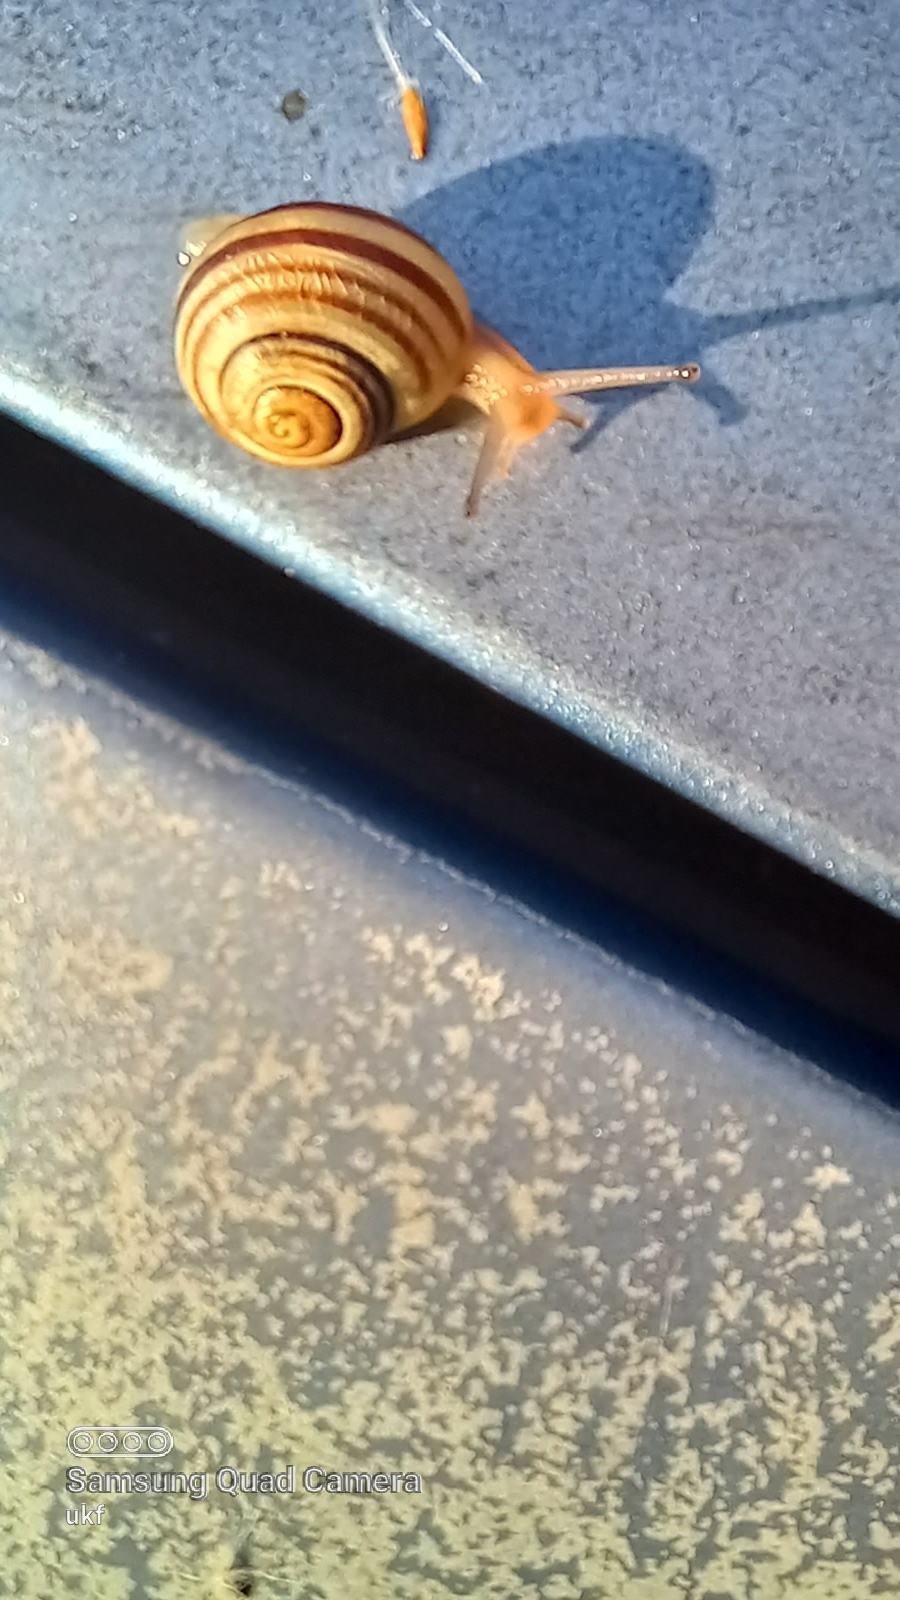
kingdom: Animalia
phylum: Mollusca
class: Gastropoda
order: Stylommatophora
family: Helicidae
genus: Cepaea
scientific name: Cepaea
